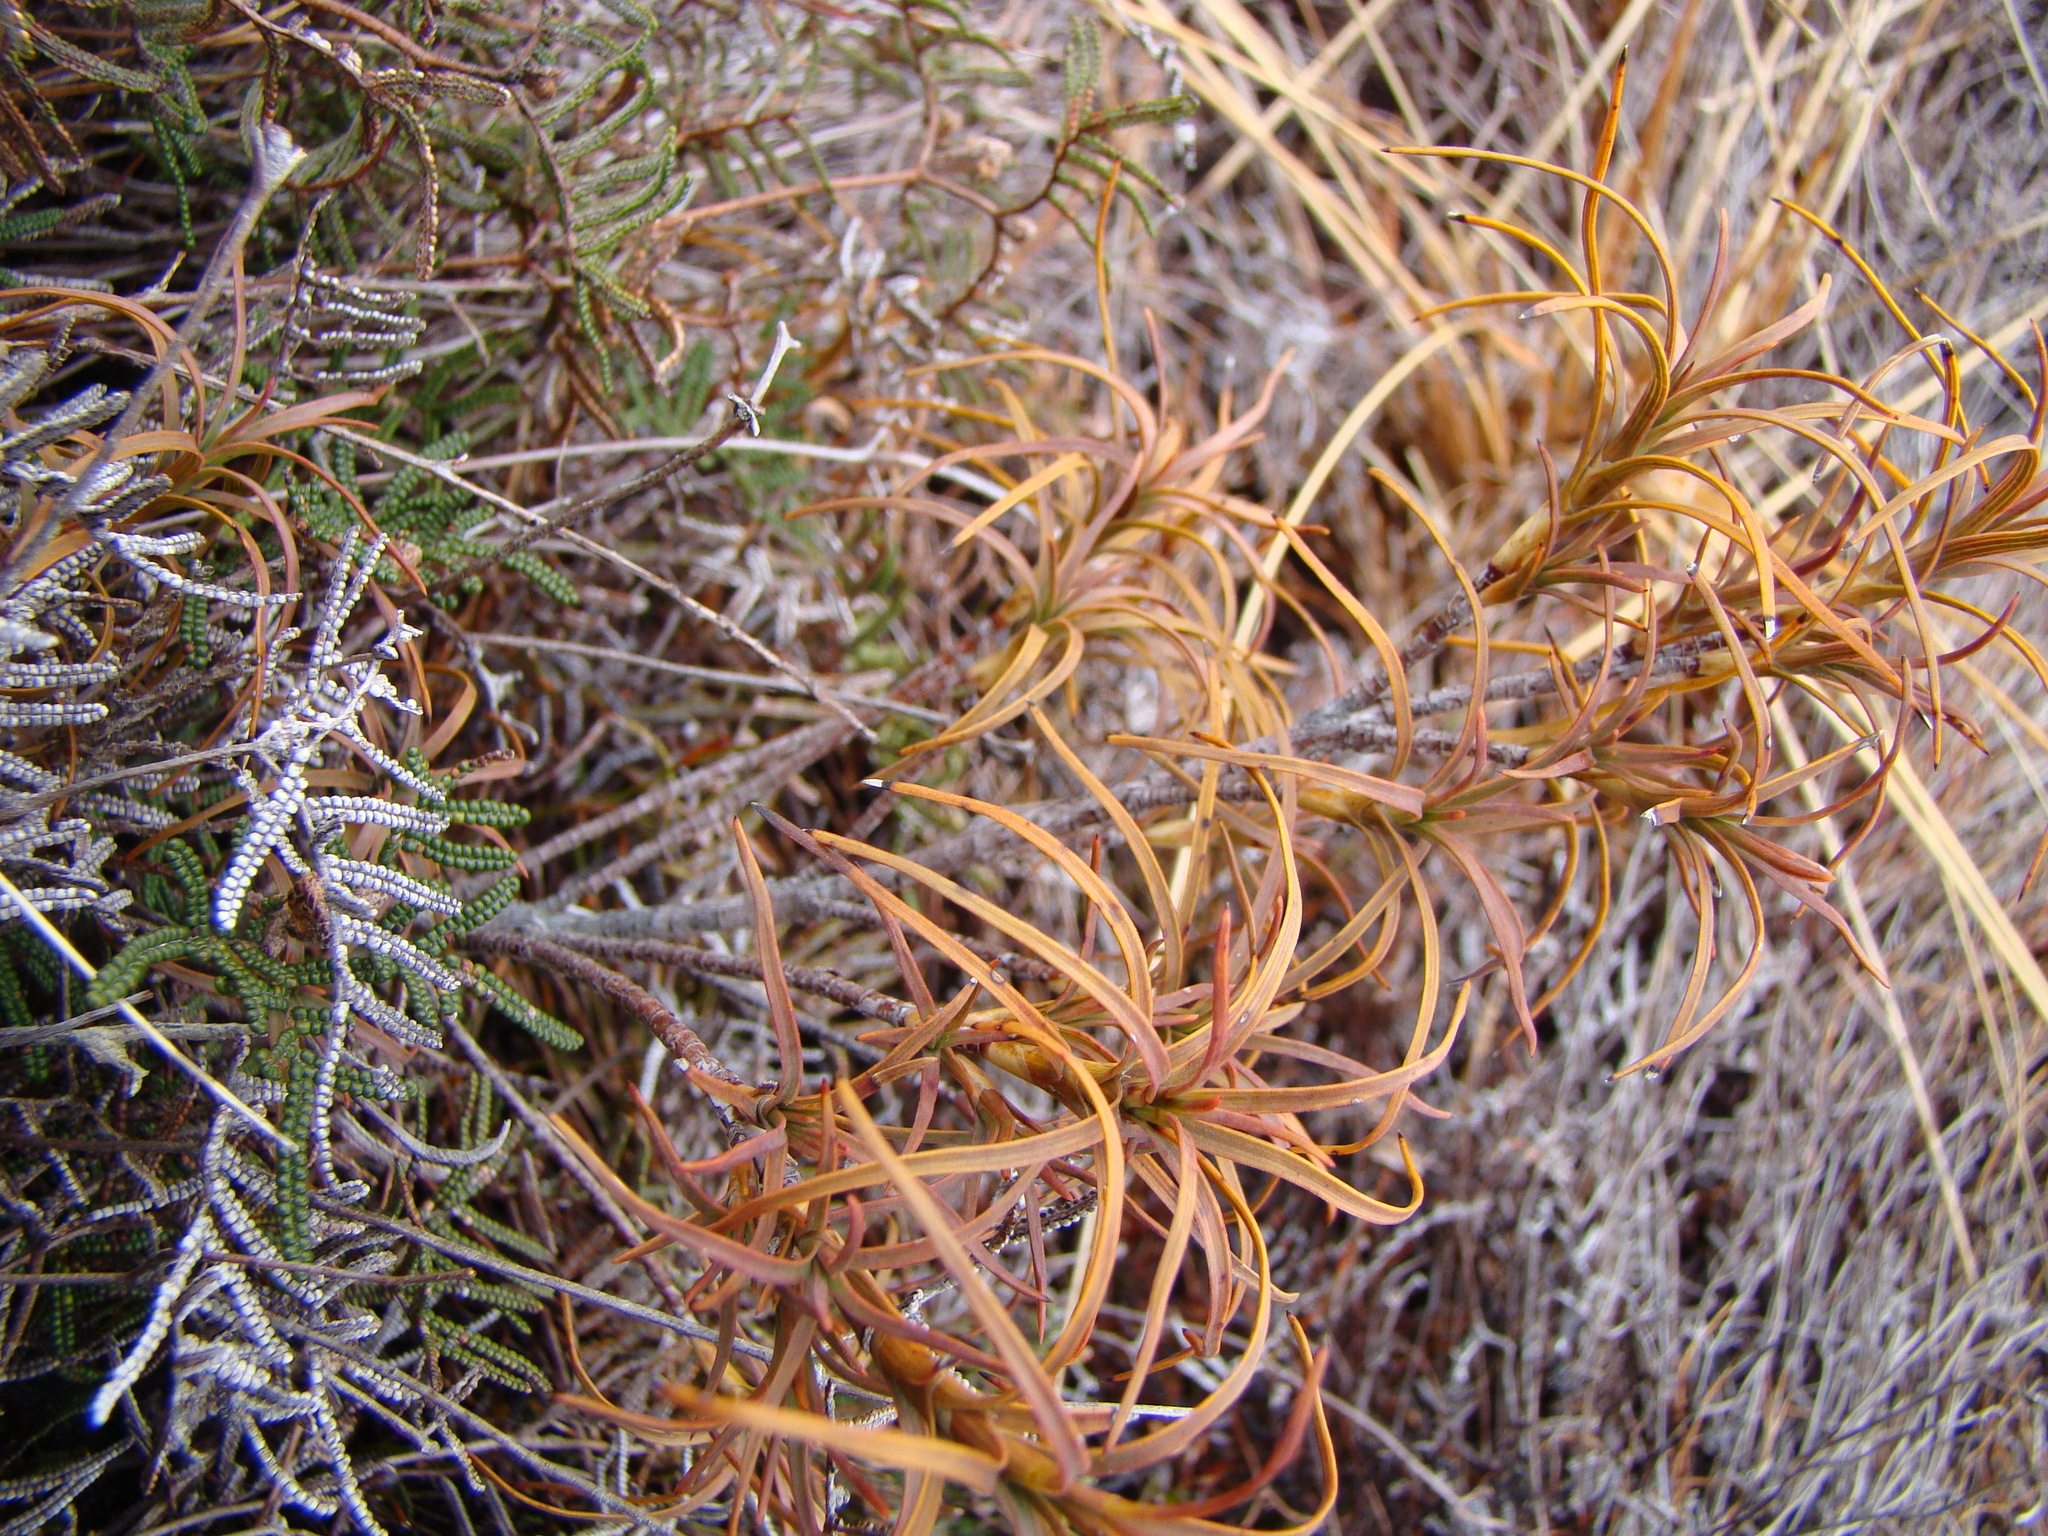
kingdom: Plantae
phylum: Tracheophyta
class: Magnoliopsida
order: Ericales
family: Ericaceae
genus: Dracophyllum
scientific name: Dracophyllum recurvum
